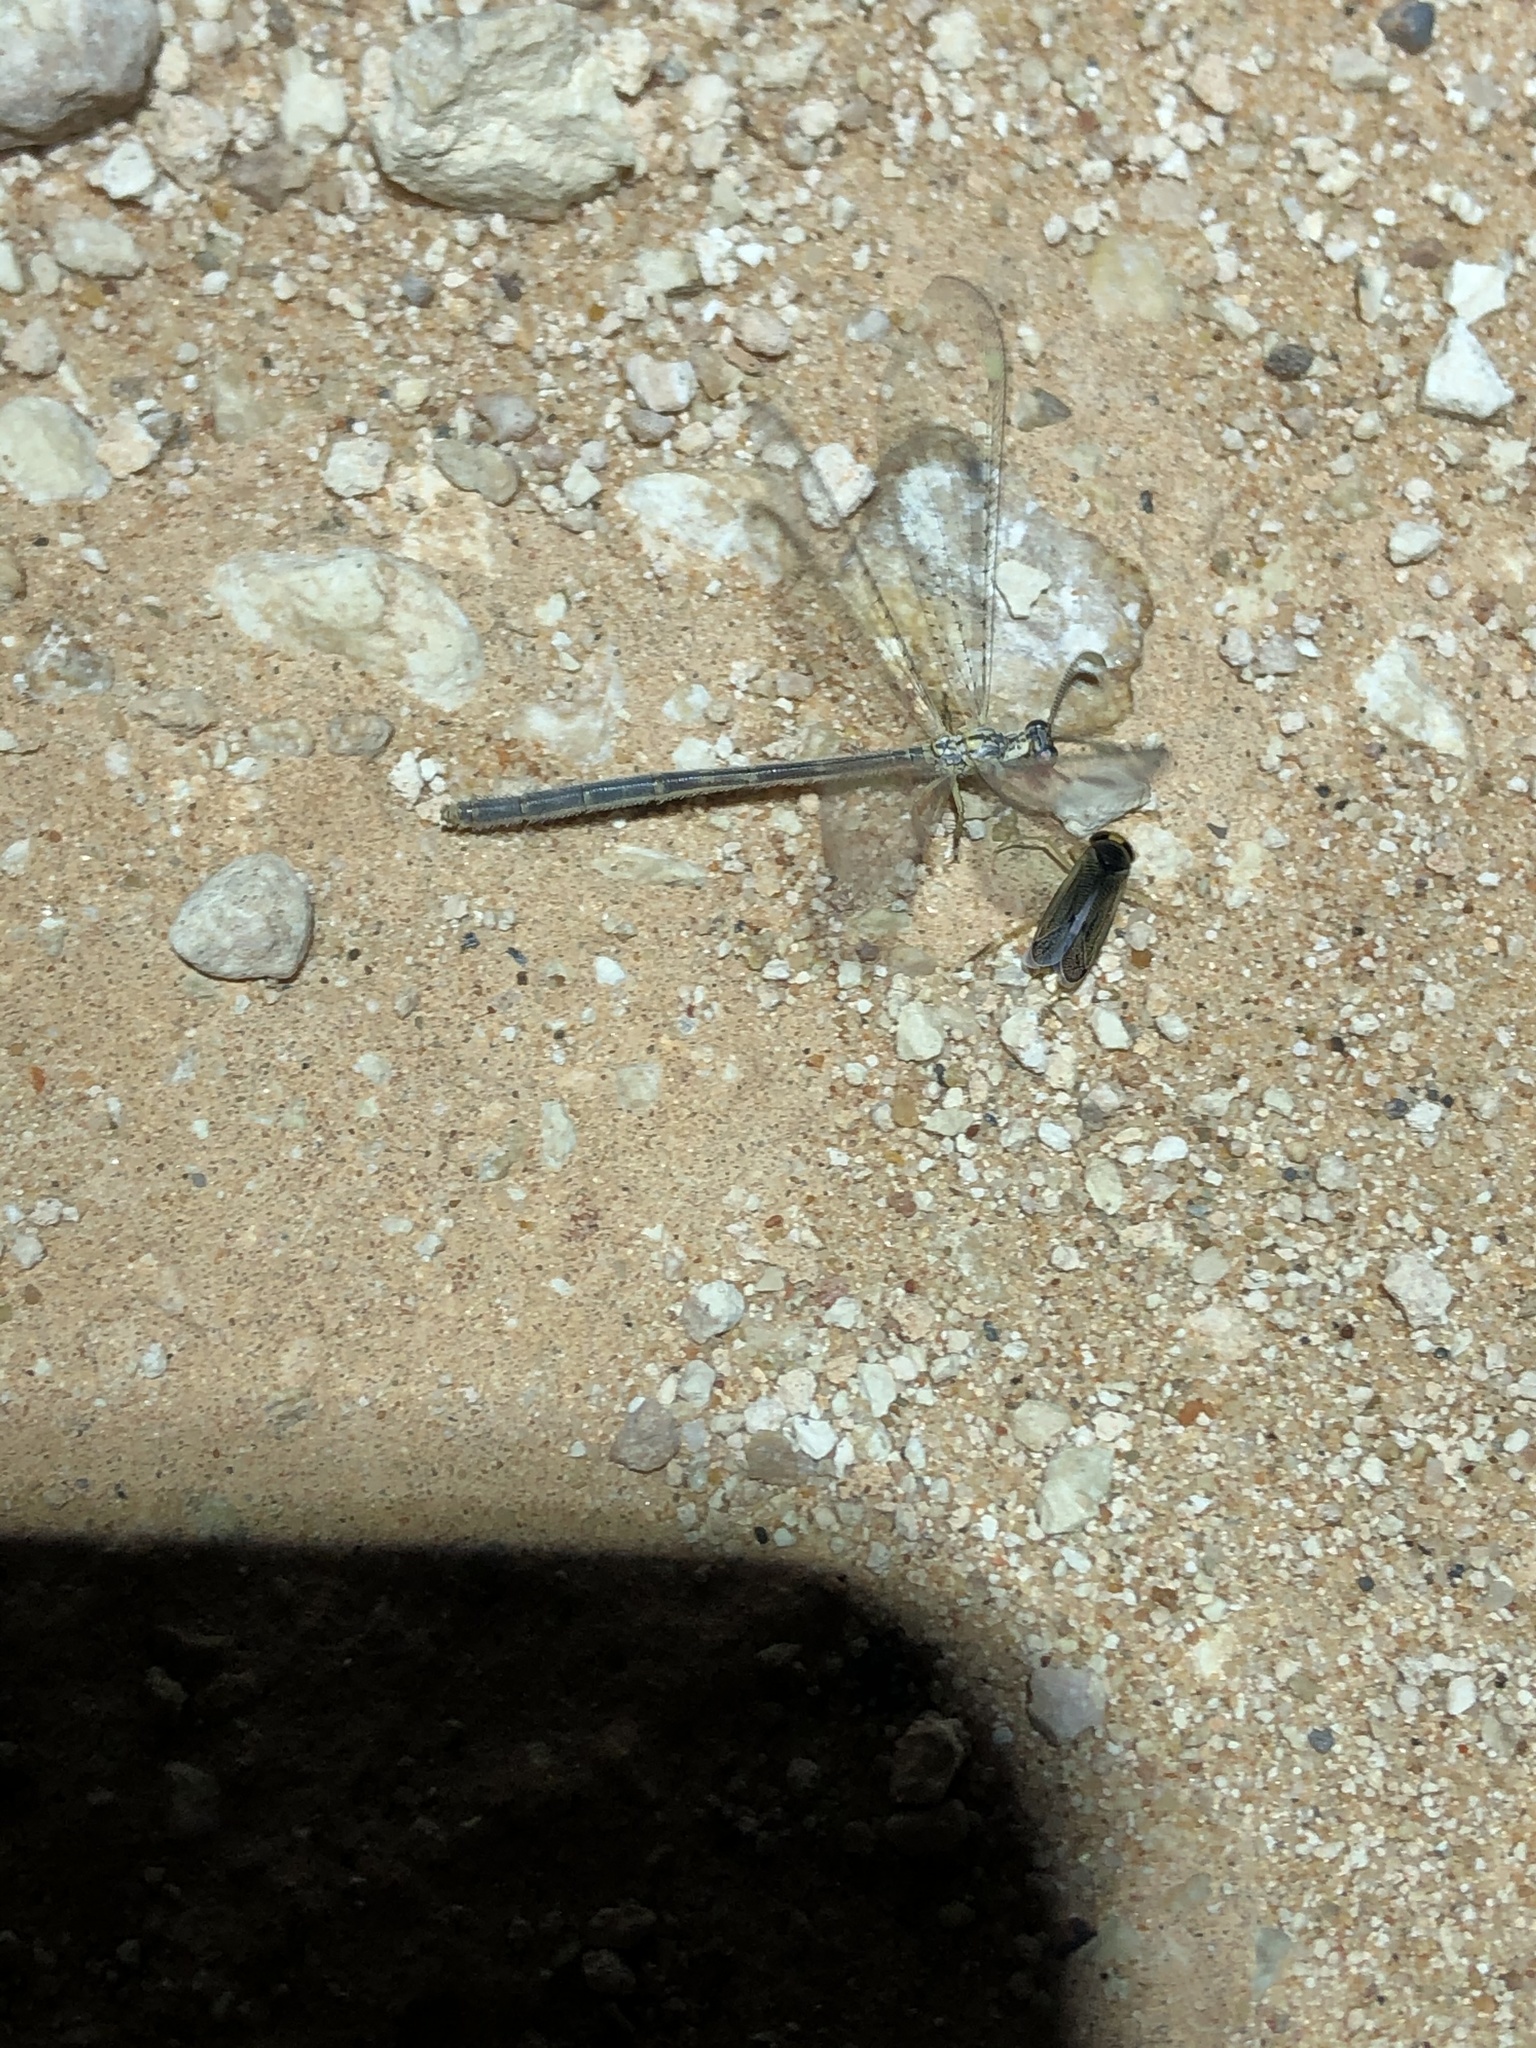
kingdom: Animalia
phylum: Arthropoda
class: Insecta
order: Neuroptera
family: Myrmeleontidae
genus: Clathroneuria
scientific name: Clathroneuria coquilletti
